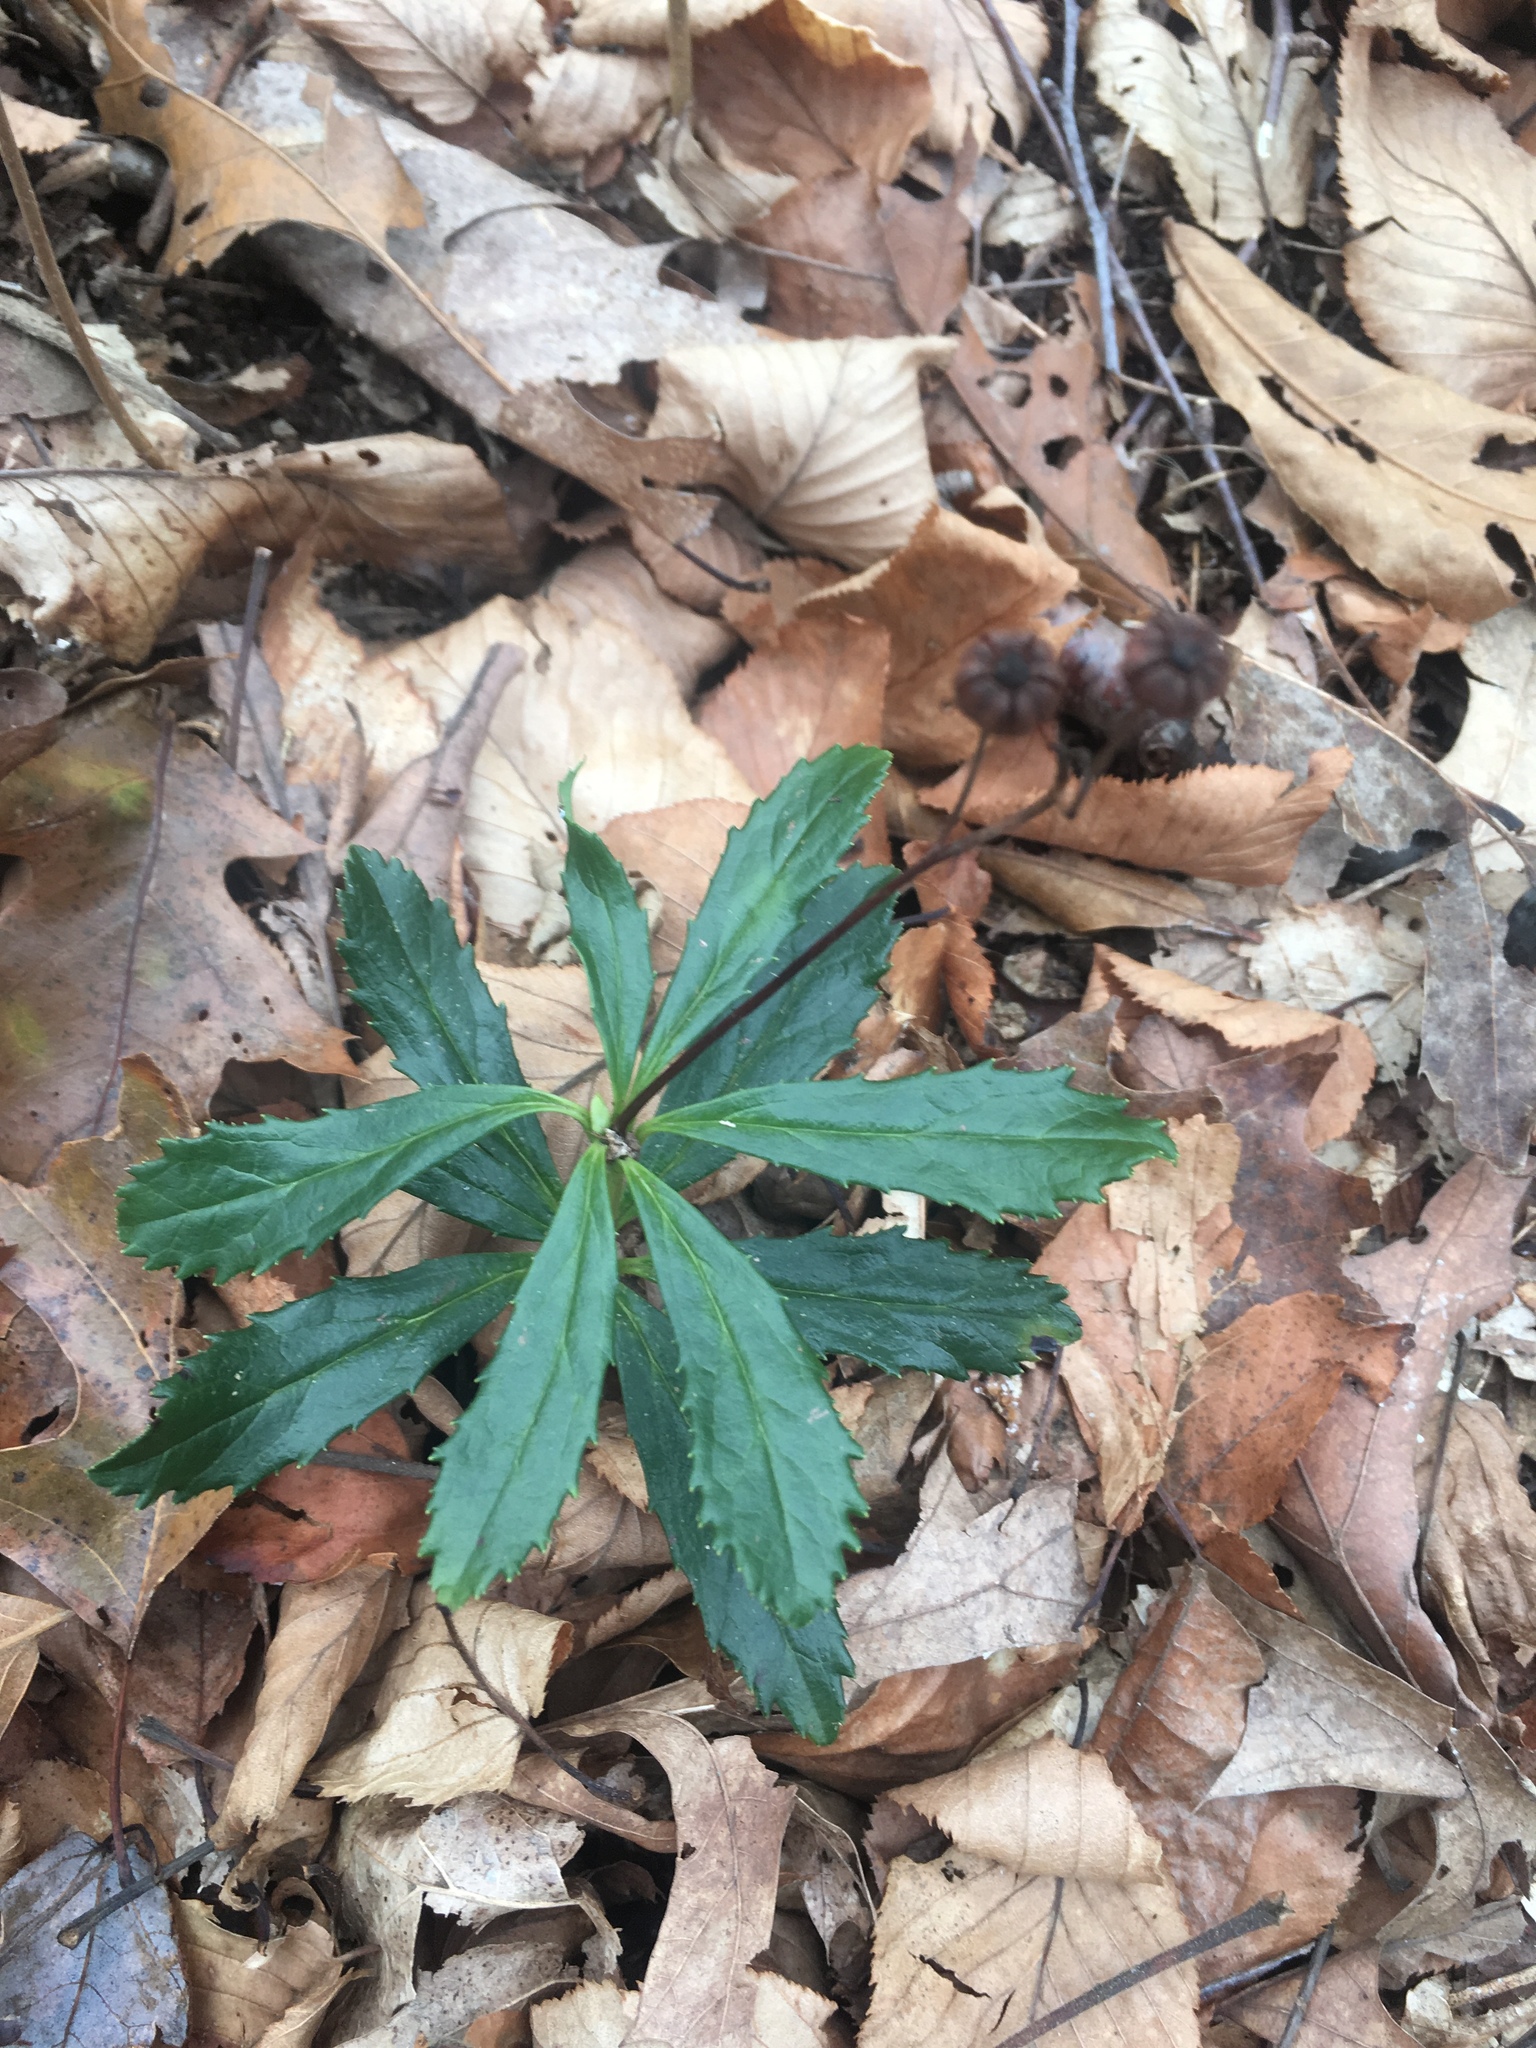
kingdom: Plantae
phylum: Tracheophyta
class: Magnoliopsida
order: Ericales
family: Ericaceae
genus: Chimaphila
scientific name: Chimaphila umbellata
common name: Pipsissewa
